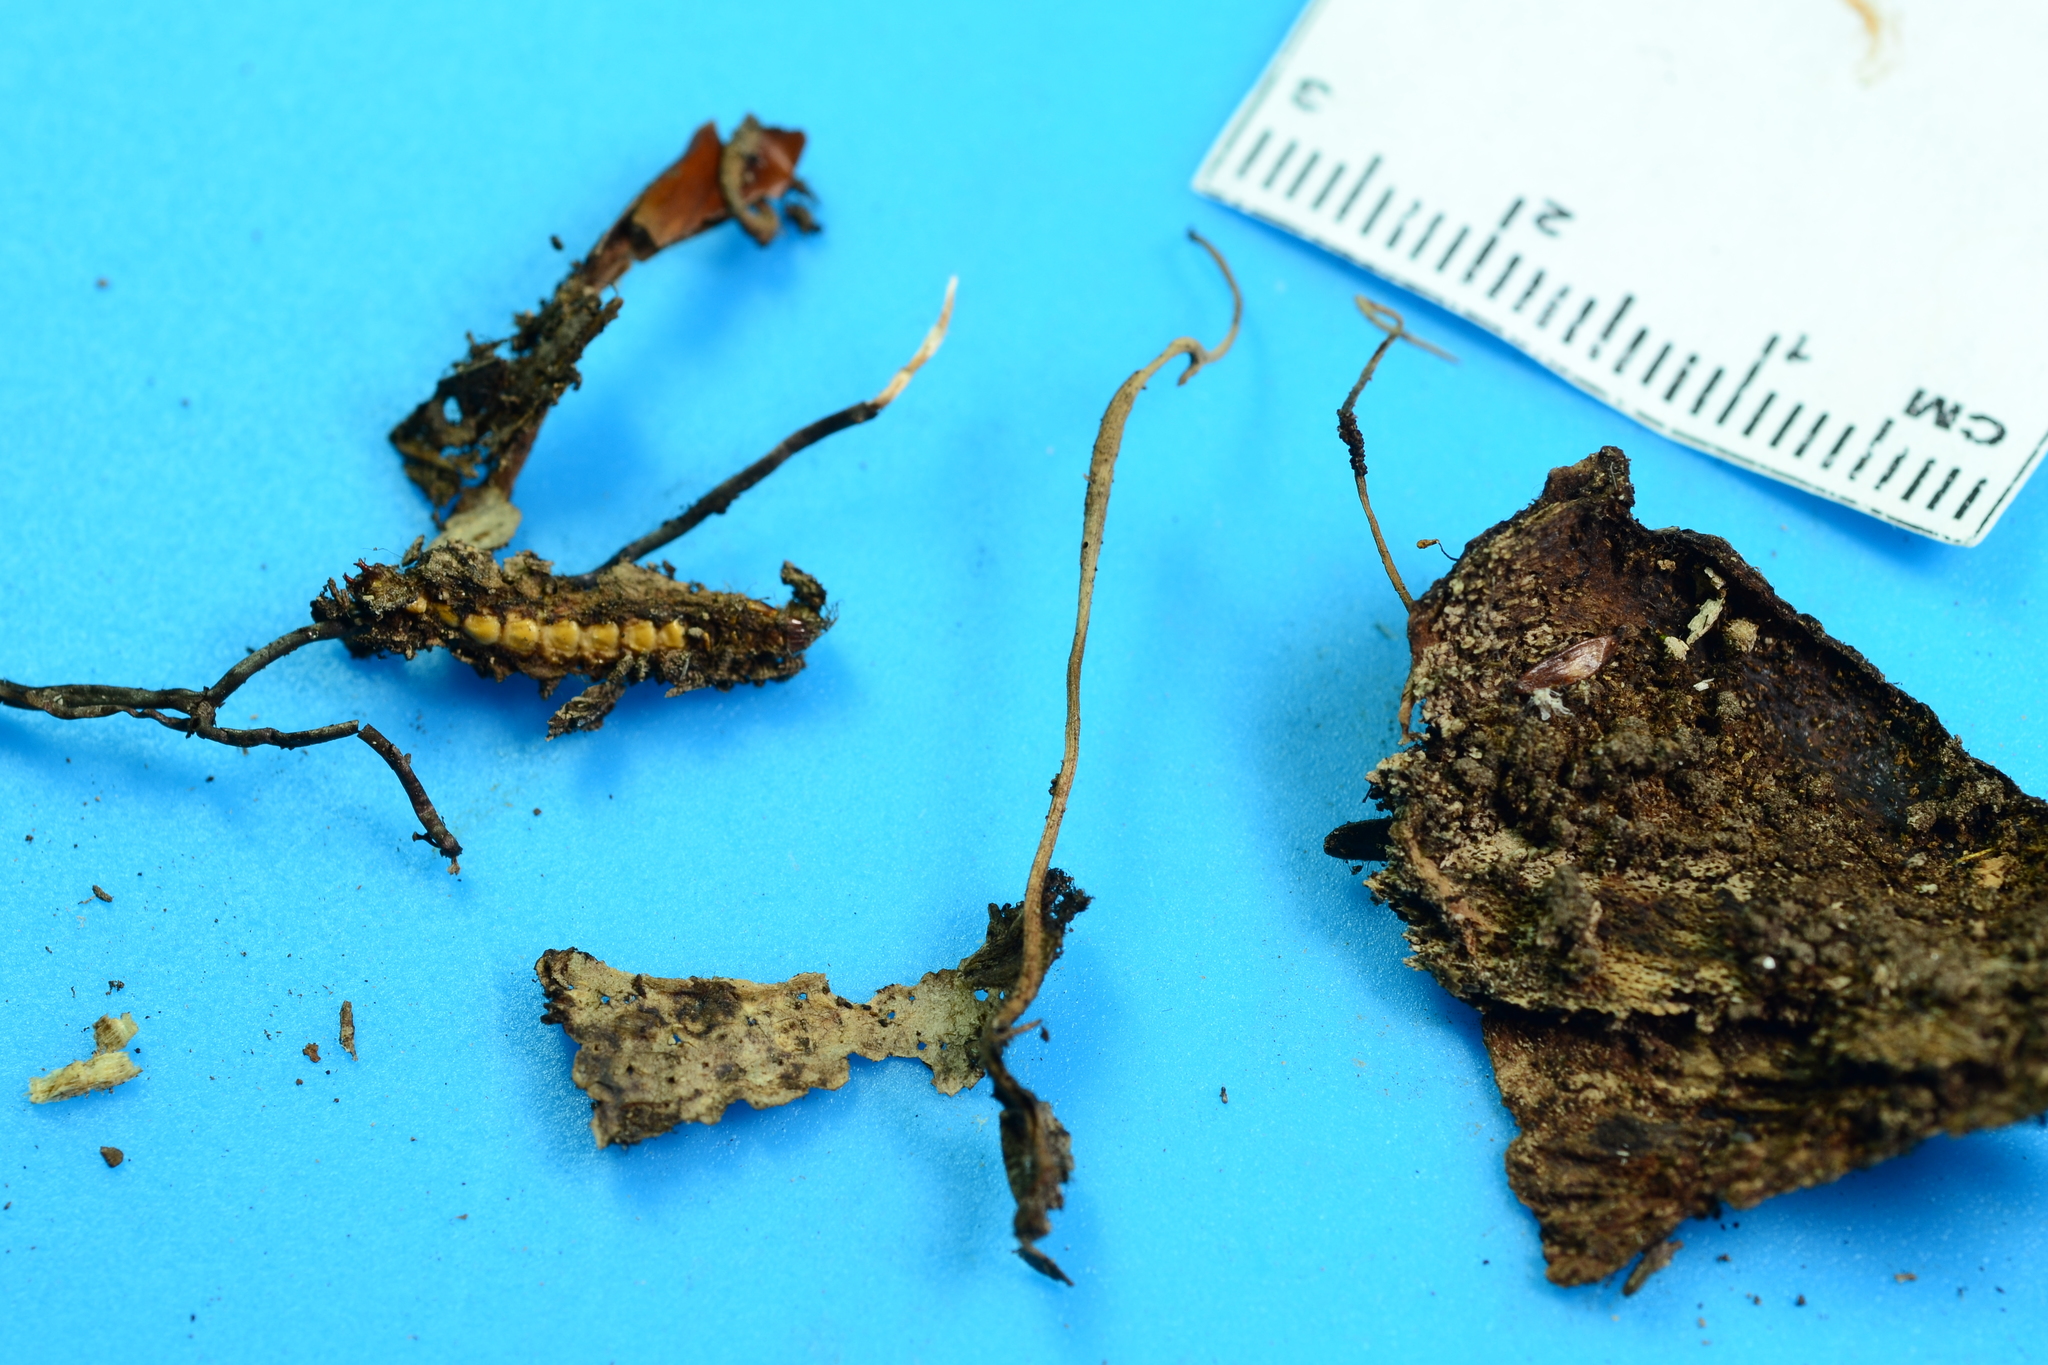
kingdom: Fungi
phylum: Ascomycota
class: Sordariomycetes
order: Hypocreales
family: Ophiocordycipitaceae
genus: Ophiocordyceps
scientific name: Ophiocordyceps stylophora
